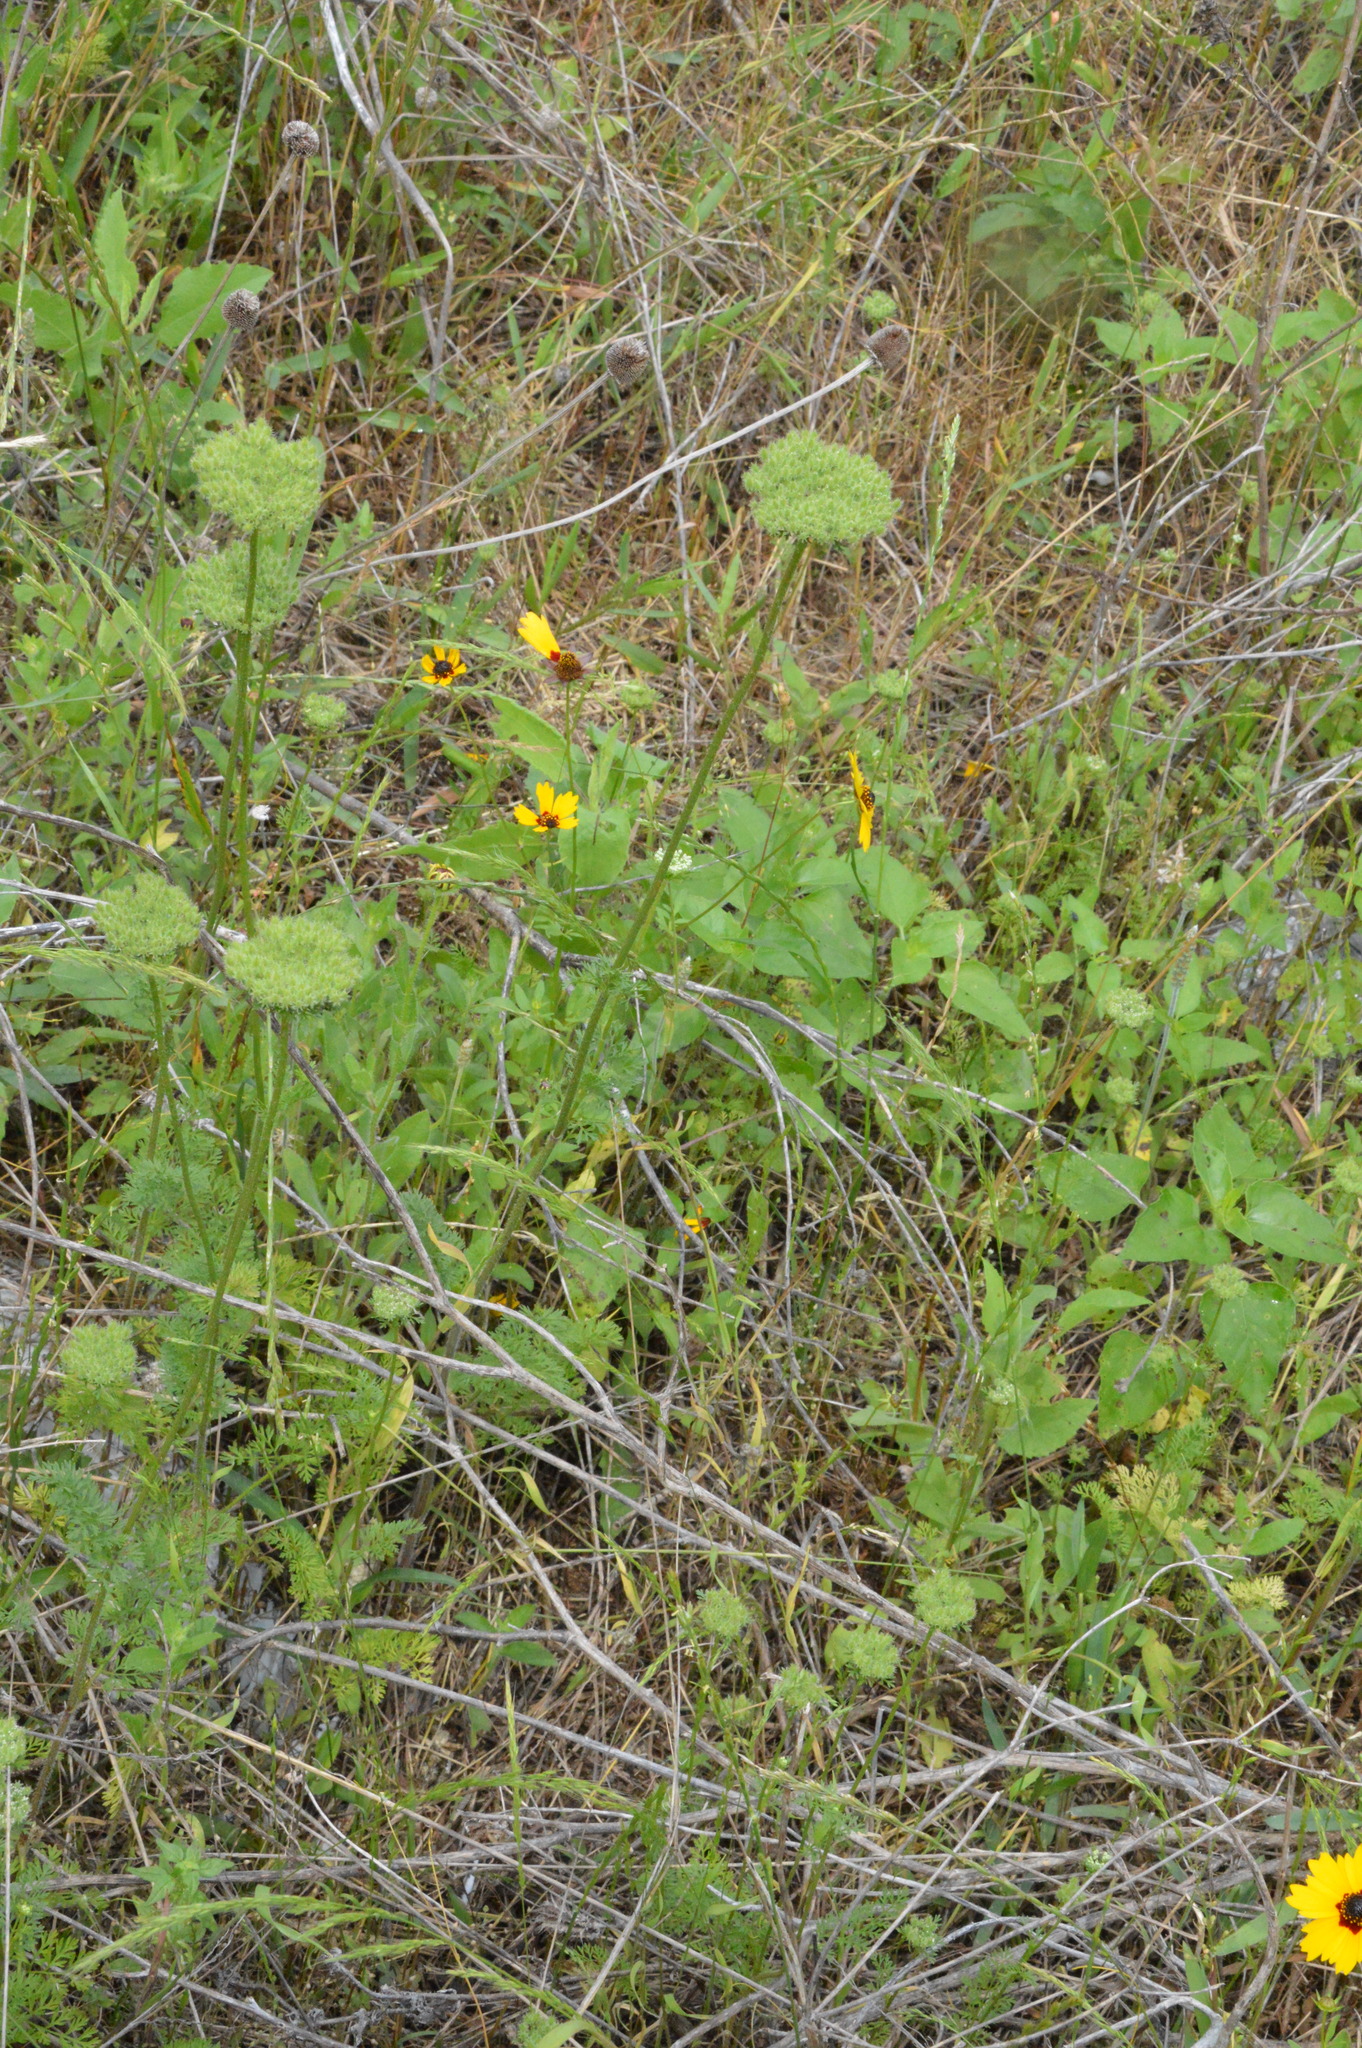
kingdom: Plantae
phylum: Tracheophyta
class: Magnoliopsida
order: Apiales
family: Apiaceae
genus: Daucus
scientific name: Daucus pusillus
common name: Southwest wild carrot
